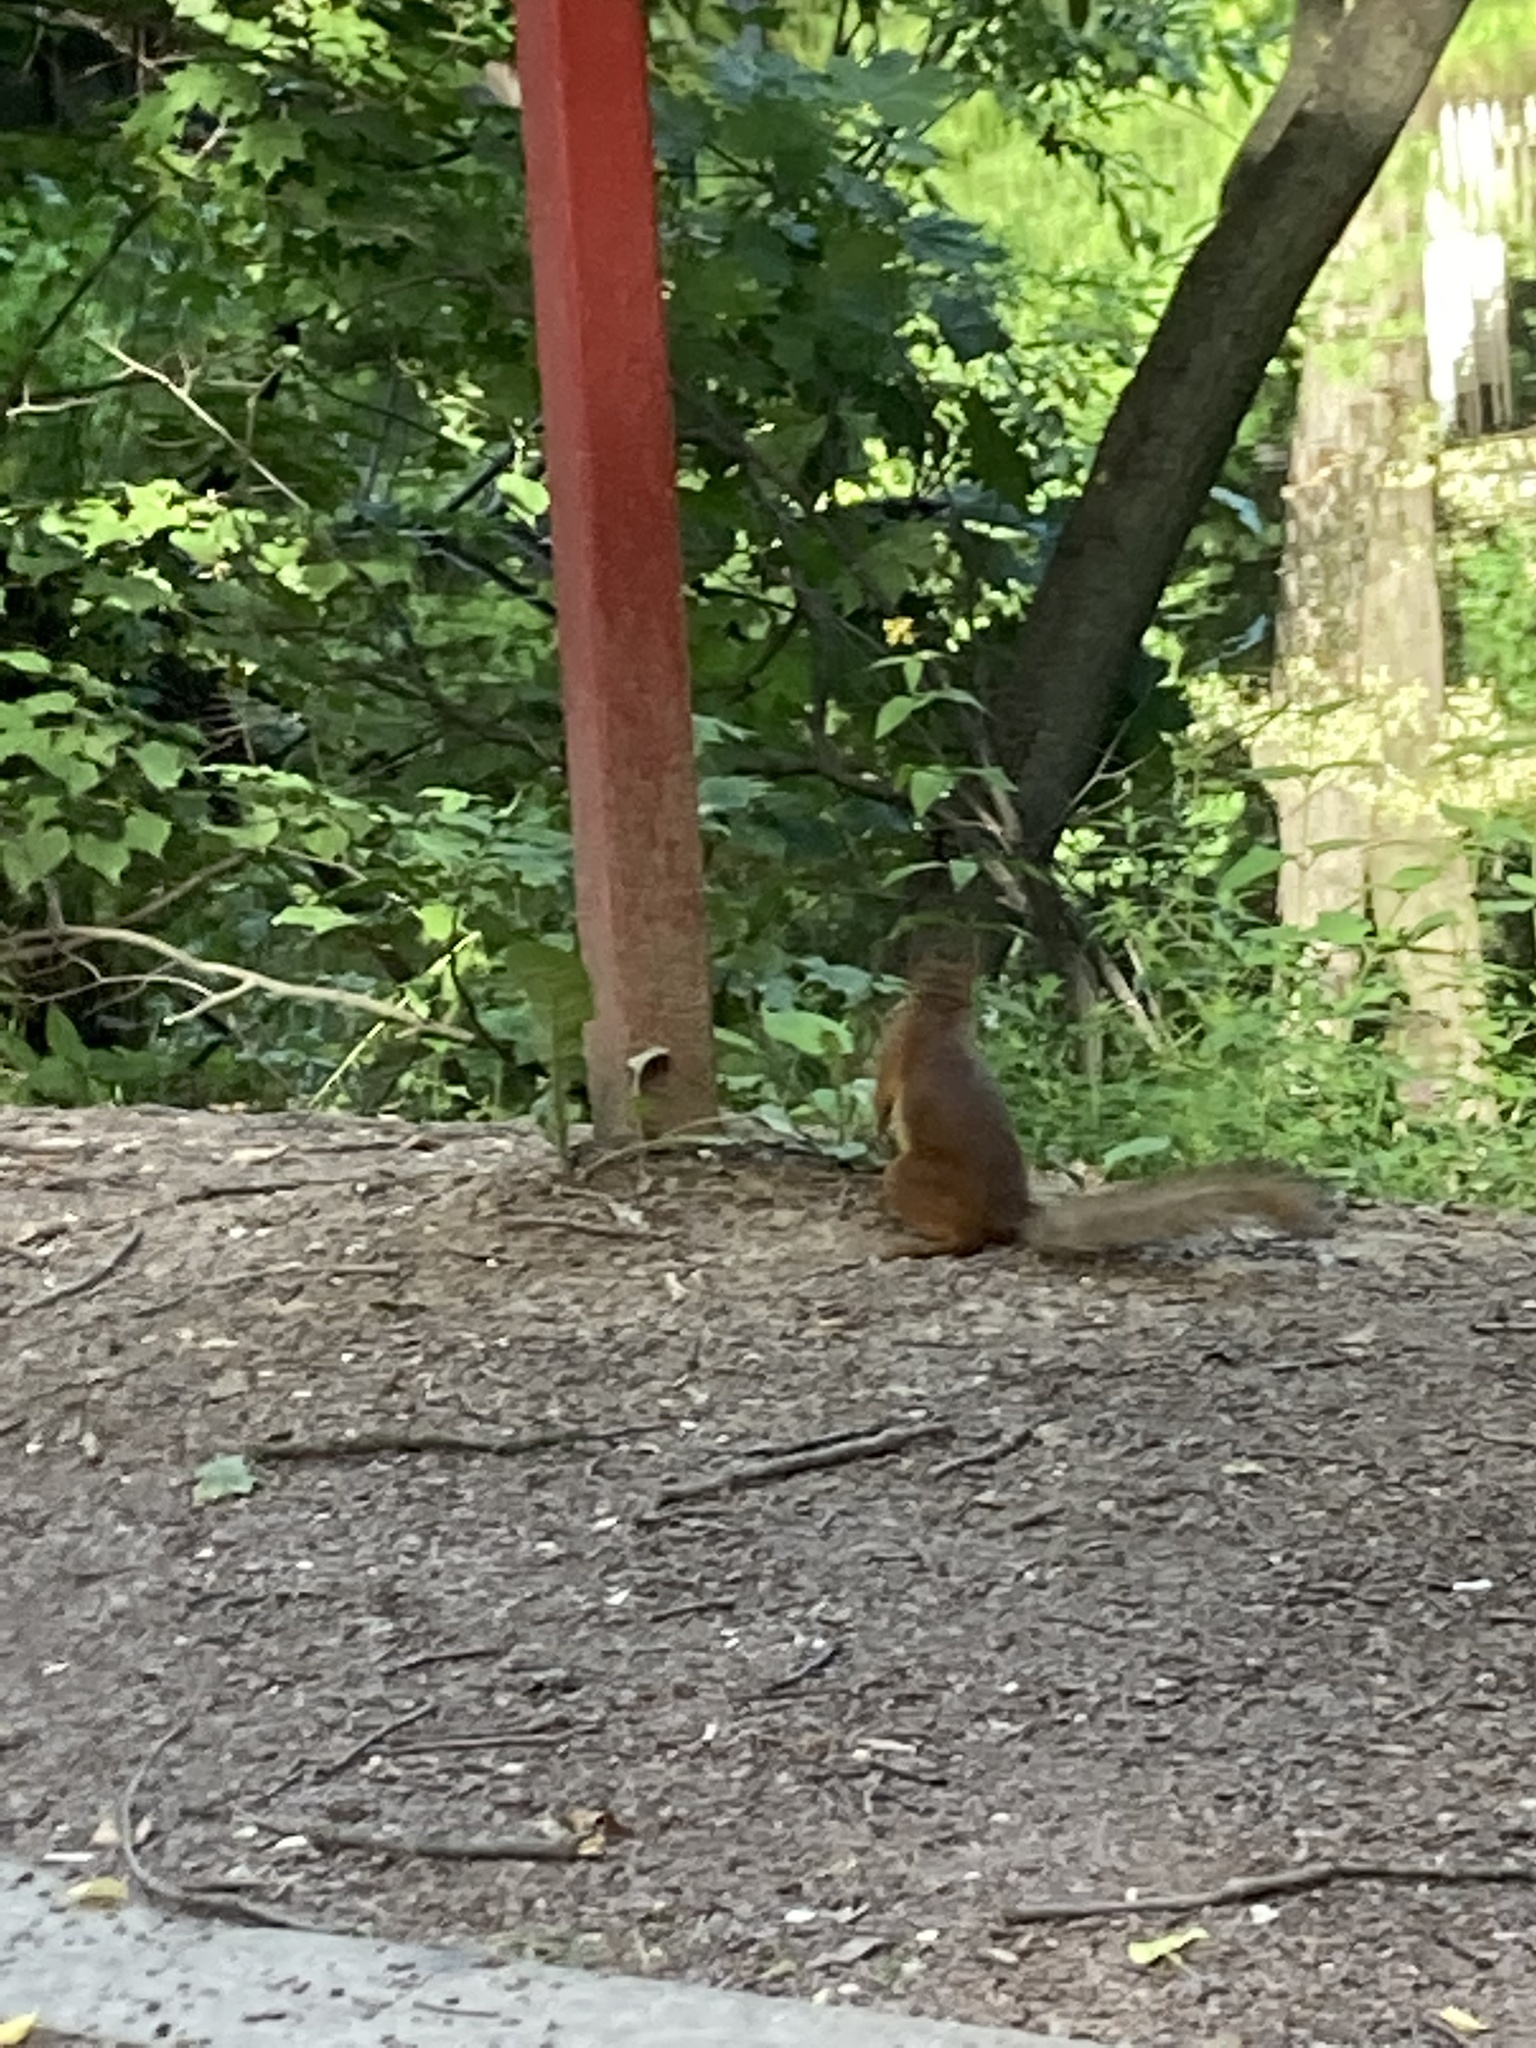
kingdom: Animalia
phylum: Chordata
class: Mammalia
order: Rodentia
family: Sciuridae
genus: Sciurus
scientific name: Sciurus vulgaris
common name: Eurasian red squirrel
